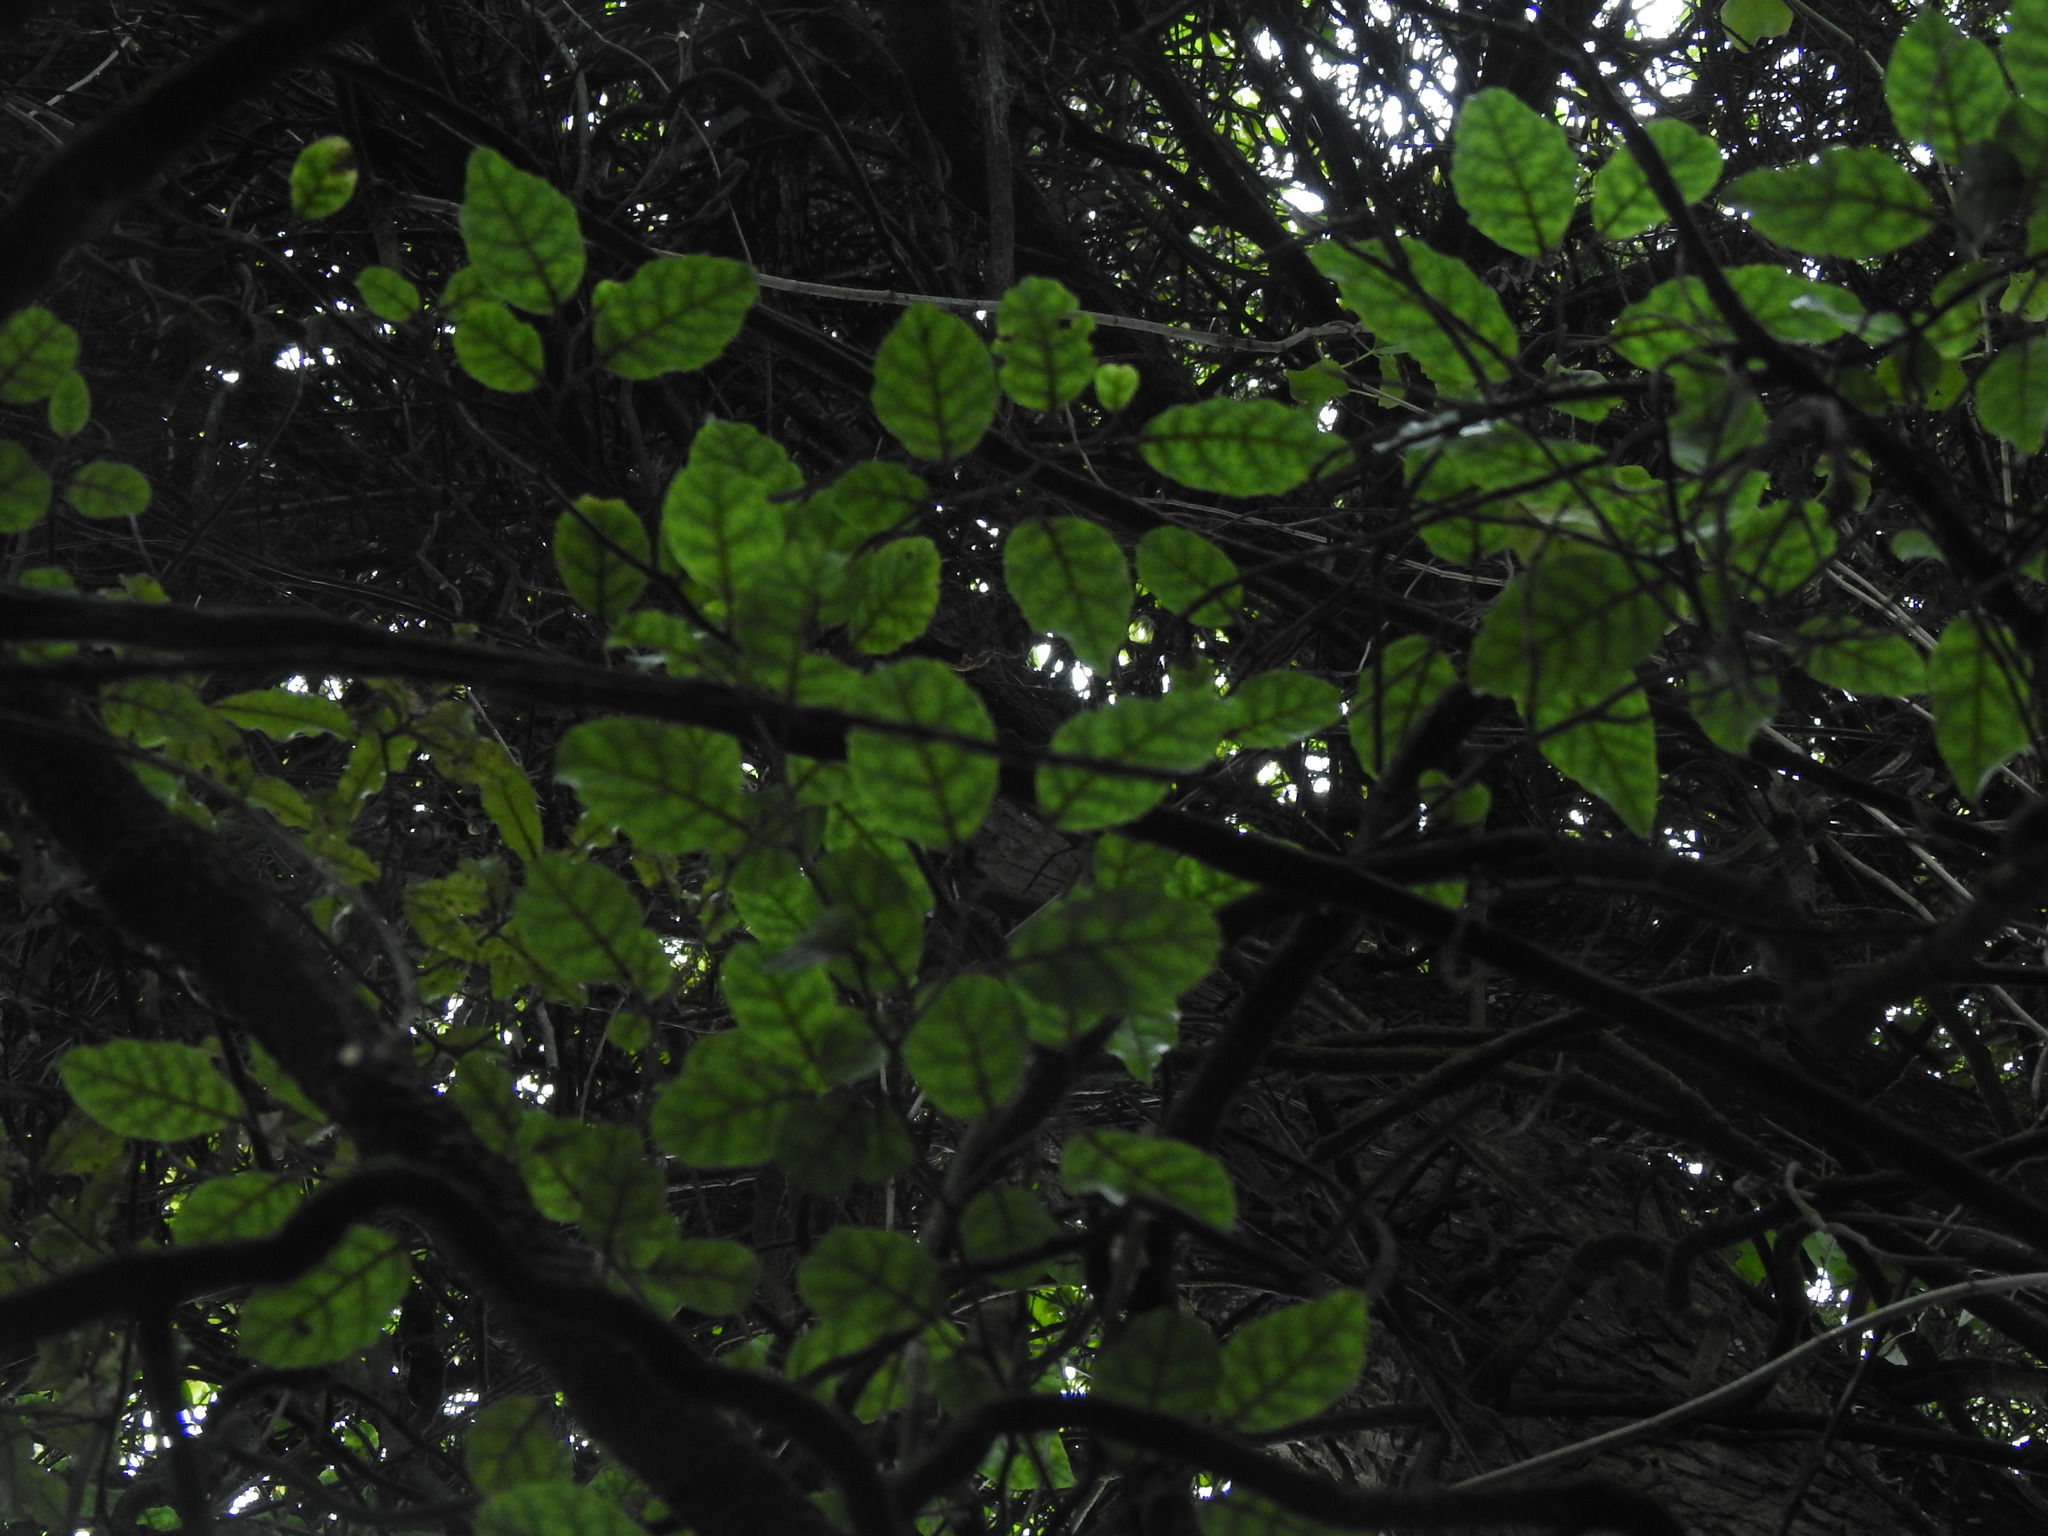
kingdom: Plantae
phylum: Tracheophyta
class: Magnoliopsida
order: Asterales
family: Rousseaceae
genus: Carpodetus
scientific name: Carpodetus serratus
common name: White mapau
